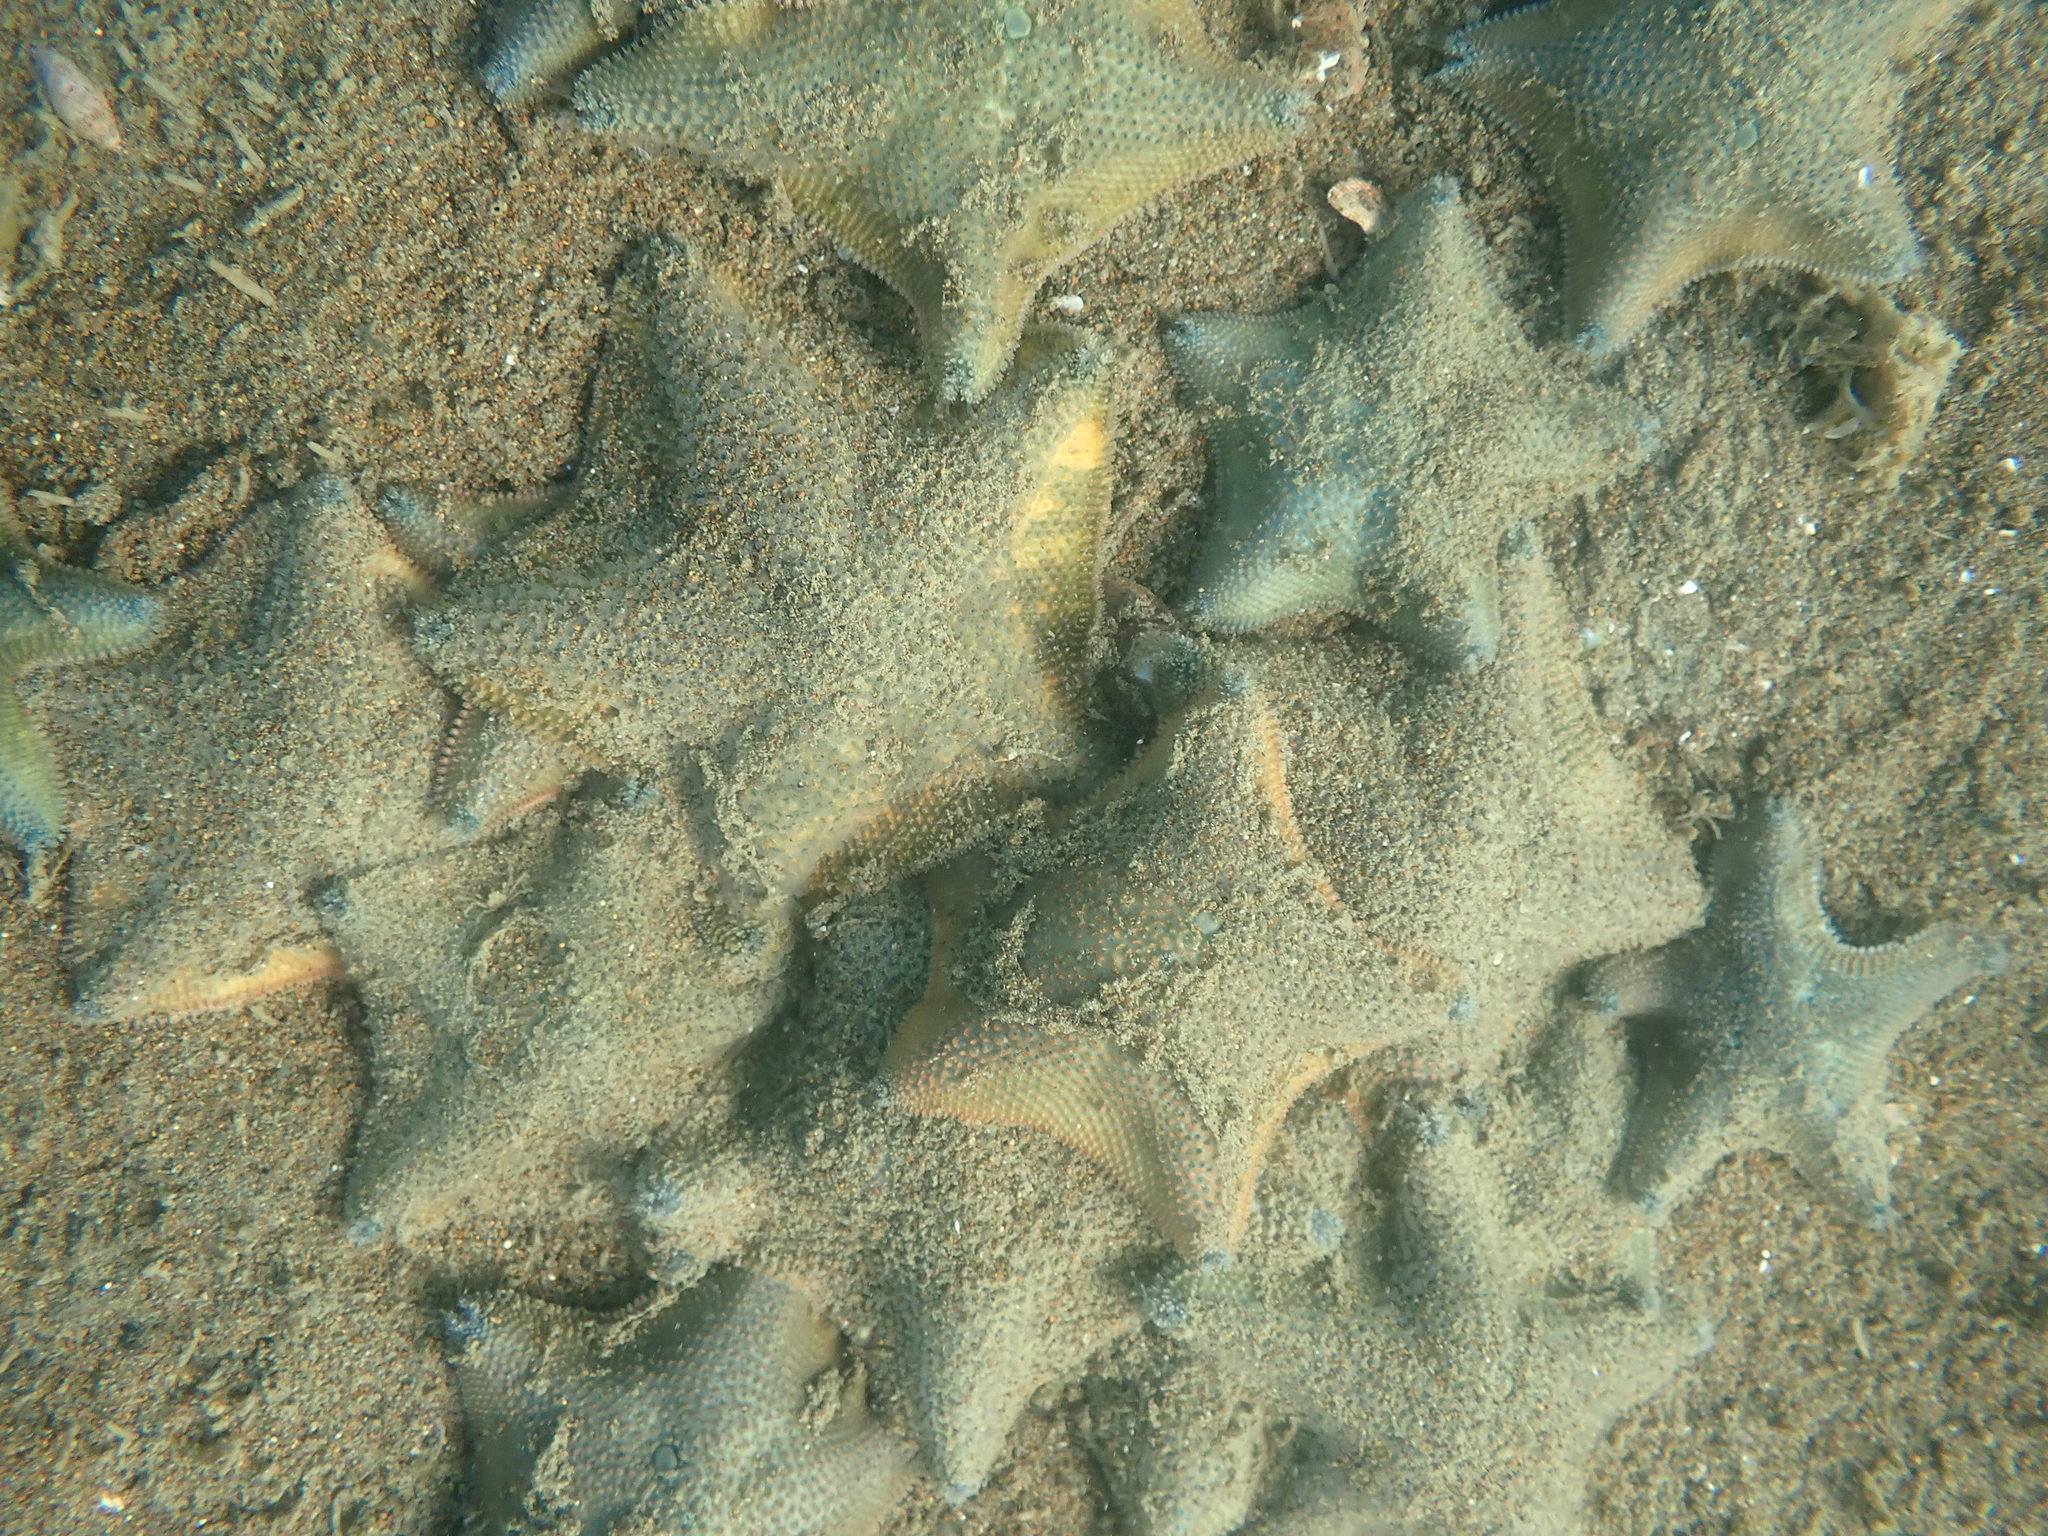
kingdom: Animalia
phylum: Echinodermata
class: Asteroidea
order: Valvatida
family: Asterinidae
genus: Patiriella
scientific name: Patiriella regularis
